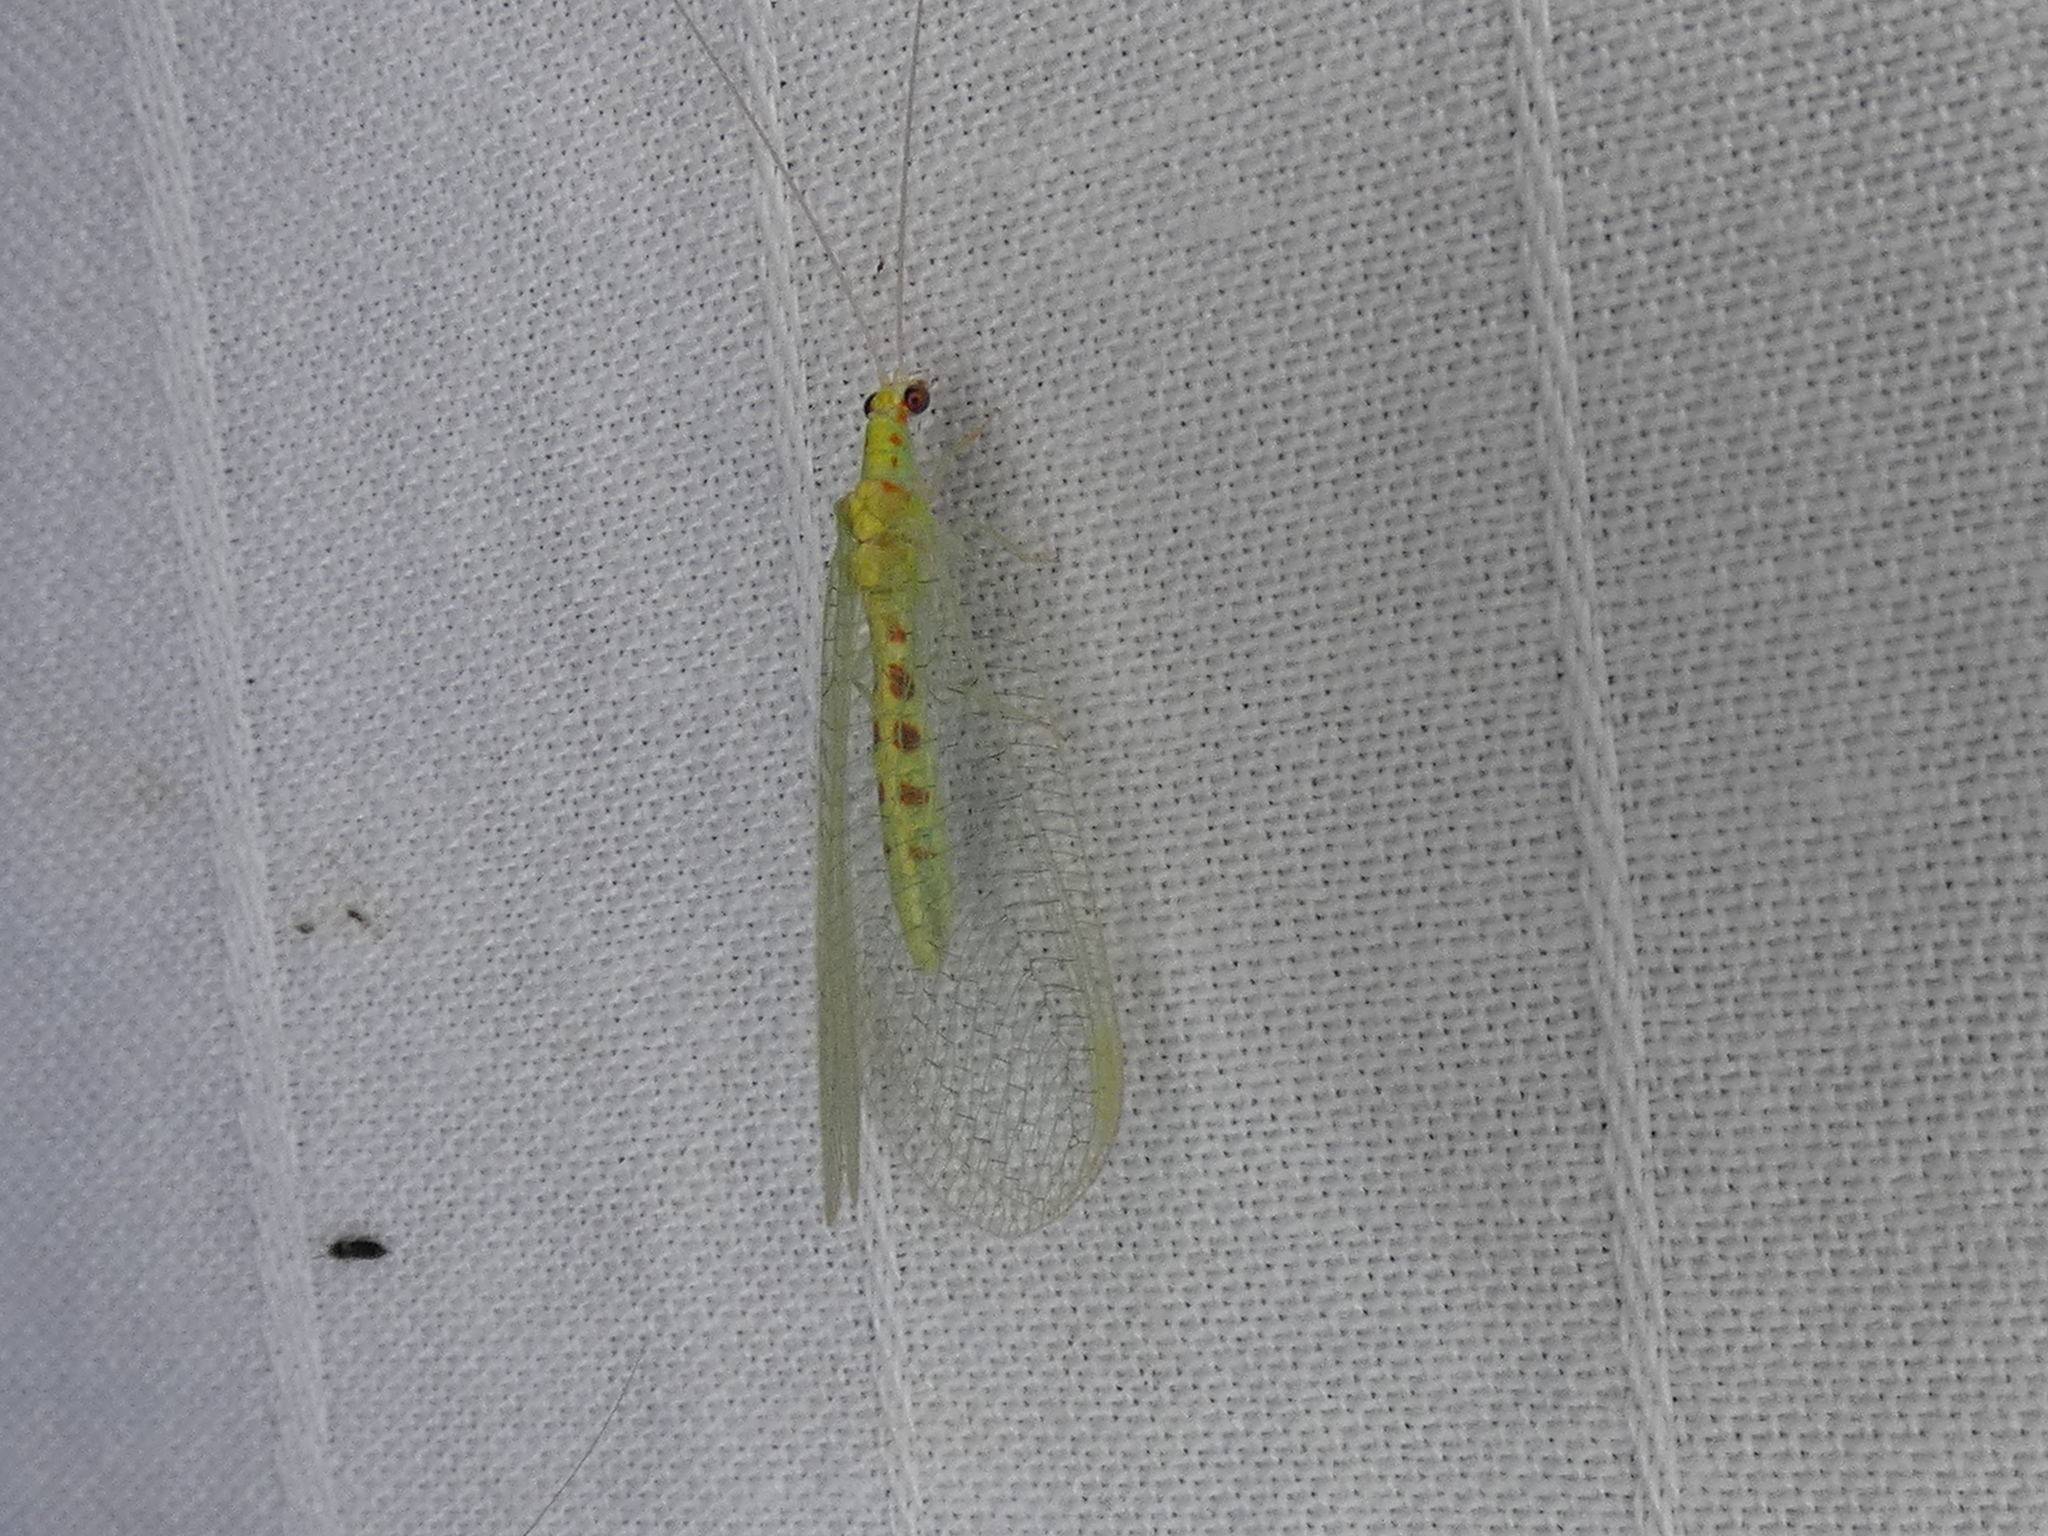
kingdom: Animalia
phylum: Arthropoda
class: Insecta
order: Neuroptera
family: Chrysopidae
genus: Chrysopa
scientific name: Chrysopa quadripunctata
